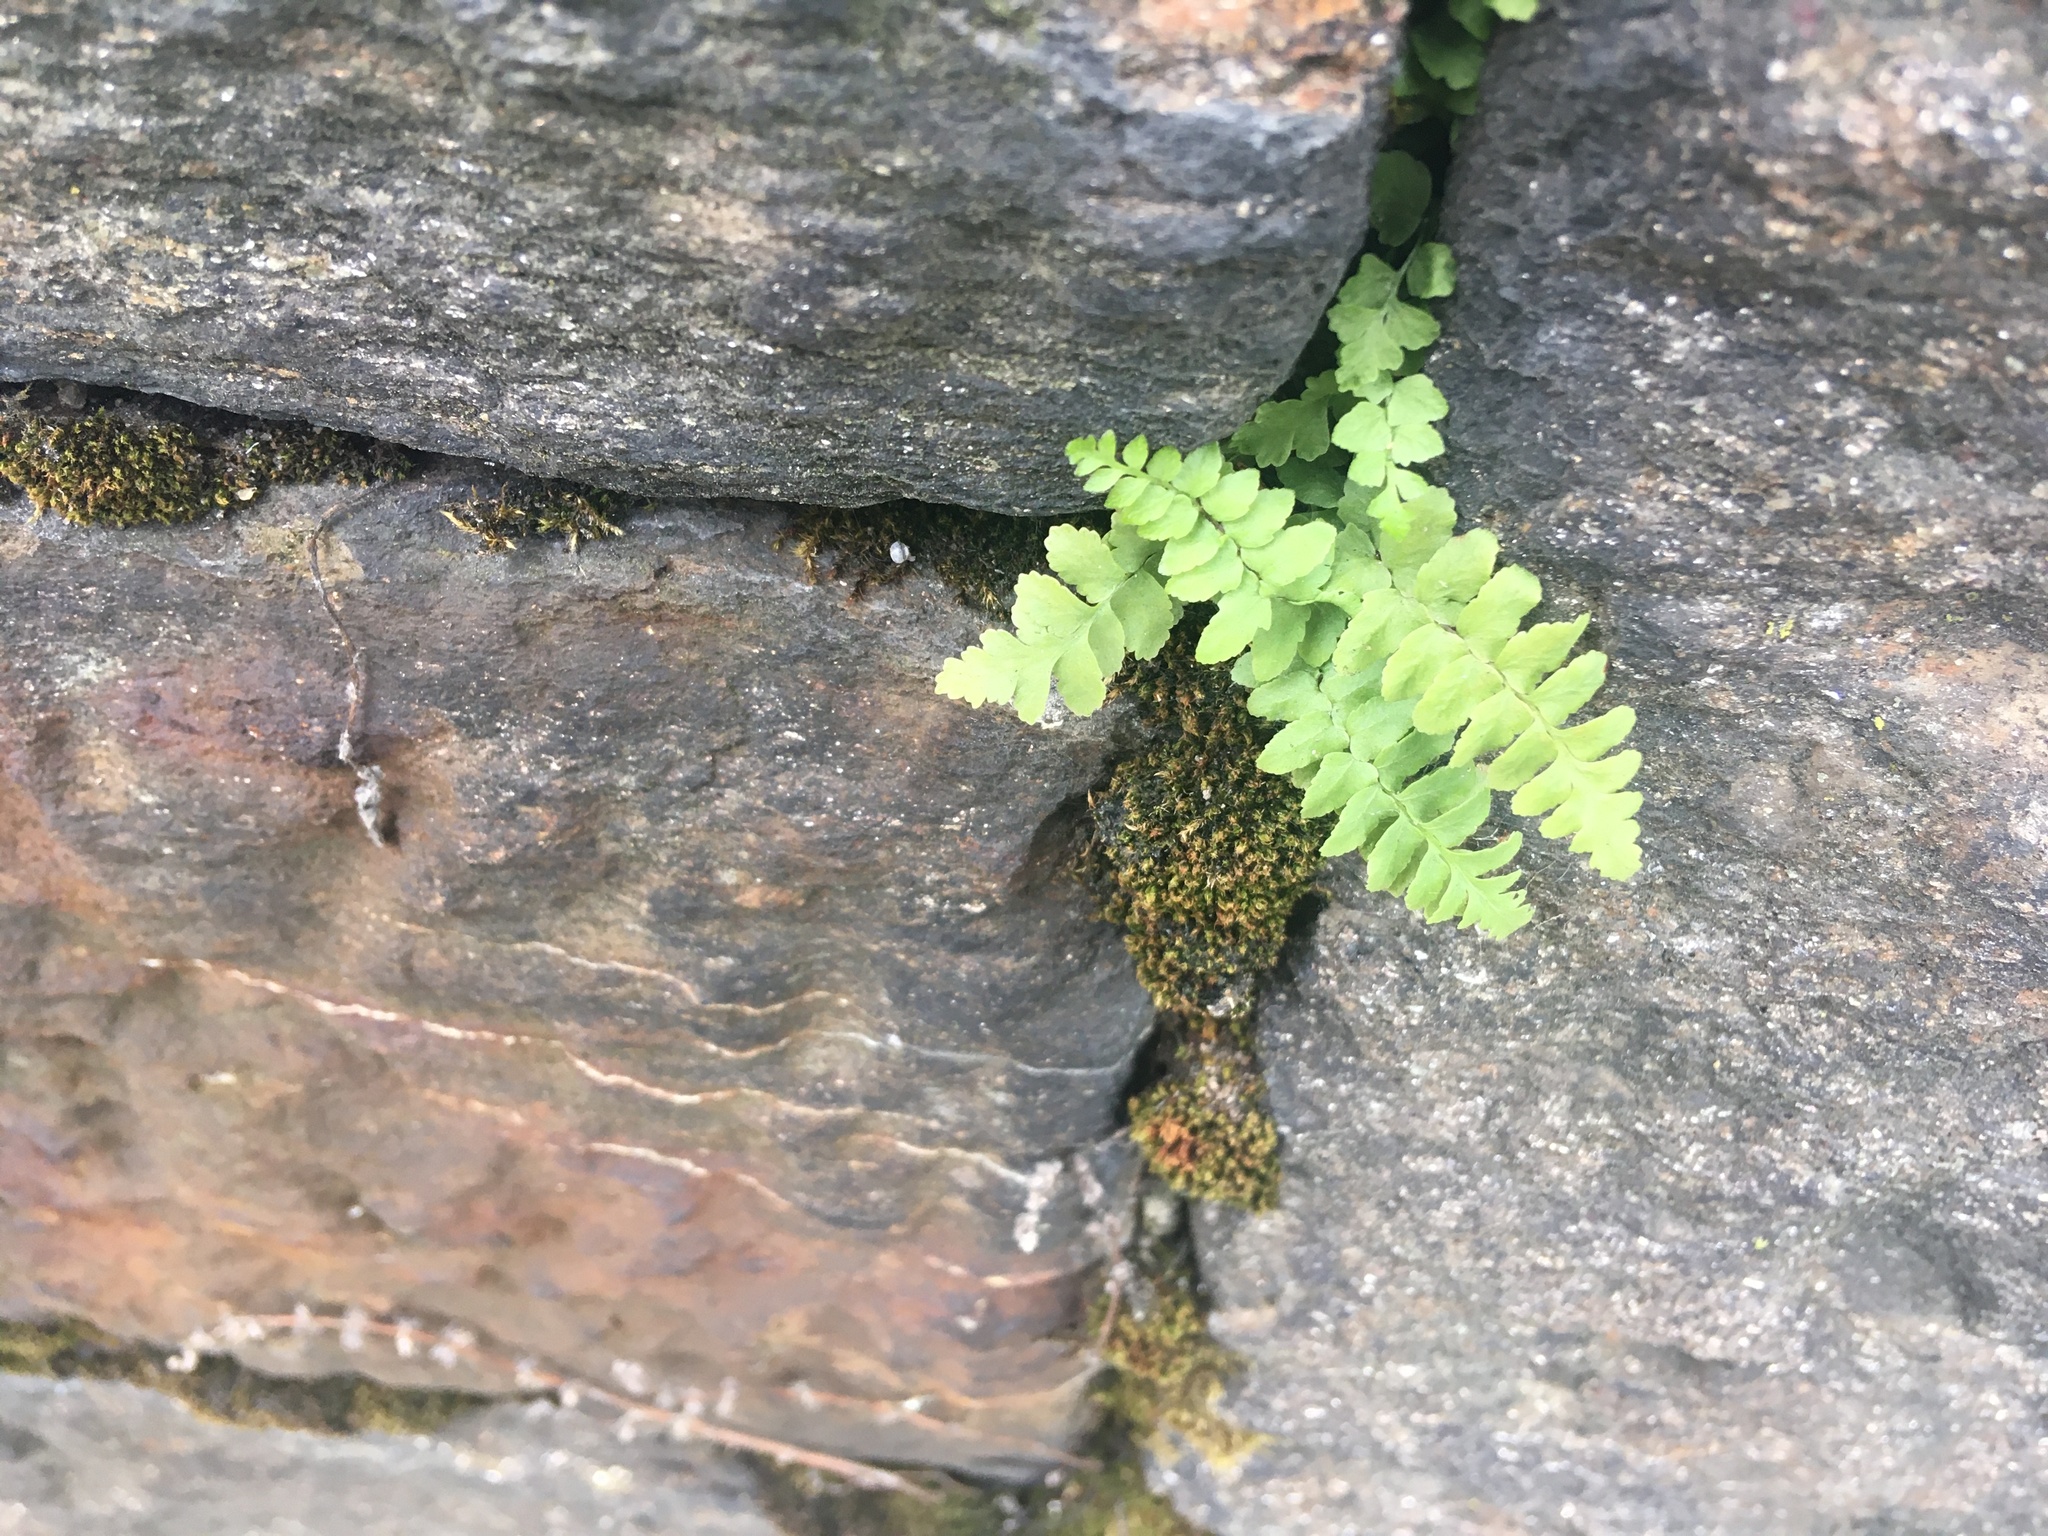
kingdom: Plantae
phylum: Tracheophyta
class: Polypodiopsida
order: Polypodiales
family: Aspleniaceae
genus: Asplenium
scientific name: Asplenium platyneuron
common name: Ebony spleenwort
